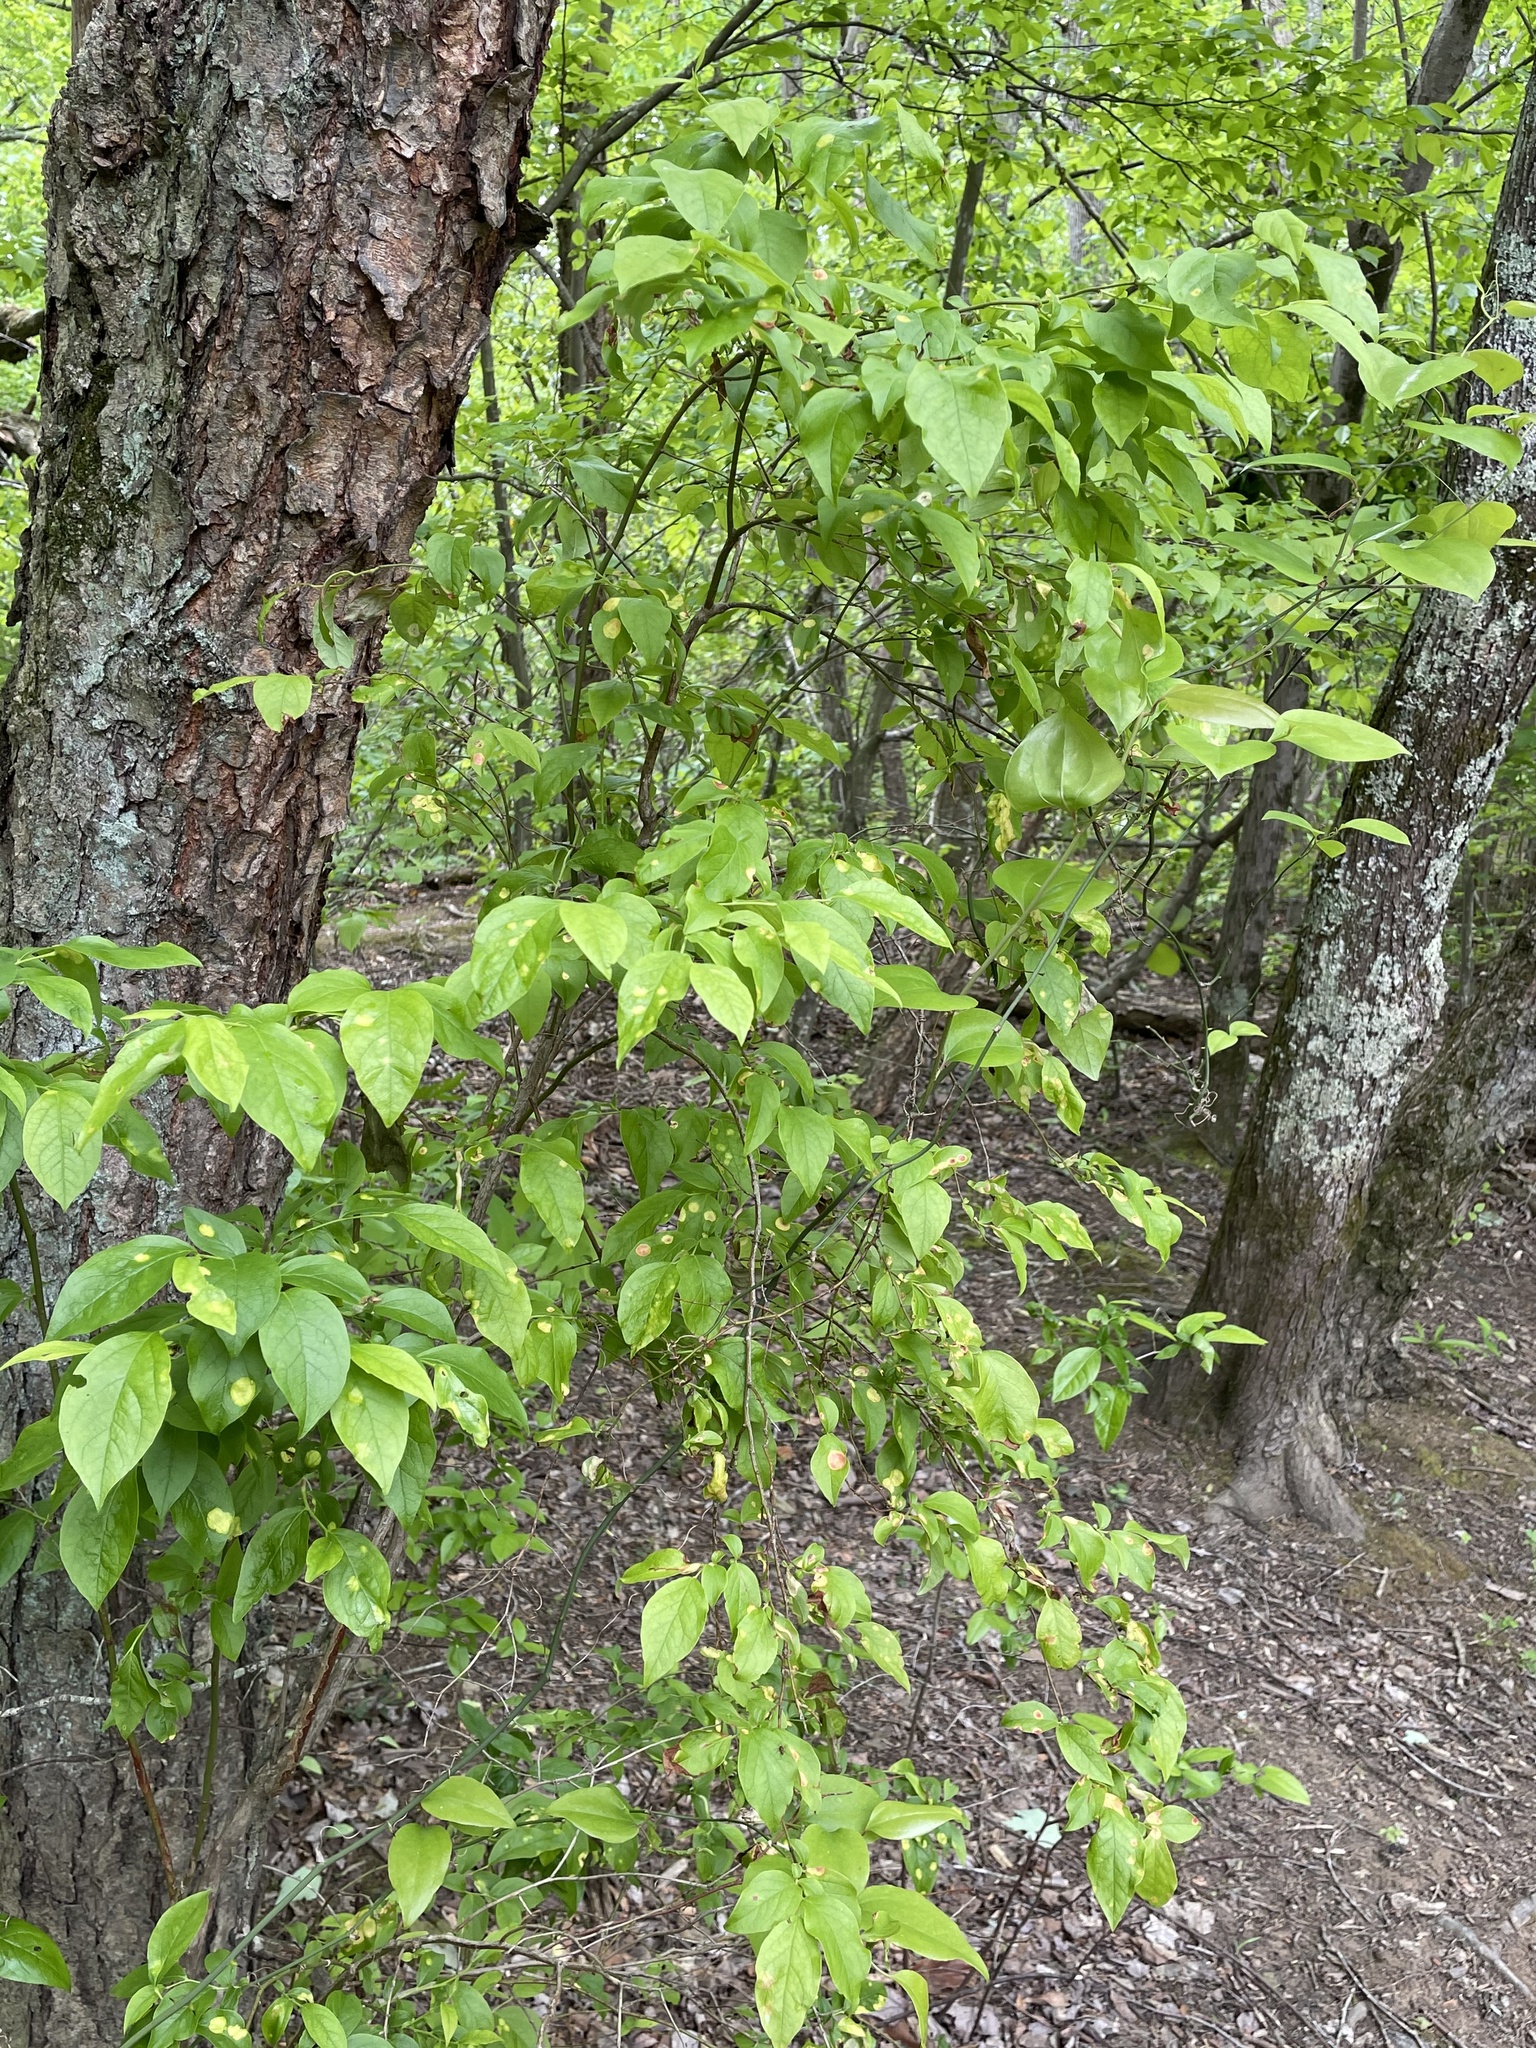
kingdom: Fungi
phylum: Basidiomycota
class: Exobasidiomycetes
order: Exobasidiales
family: Exobasidiaceae
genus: Exobasidium
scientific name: Exobasidium vaccinii
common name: Cowberry redleaf
